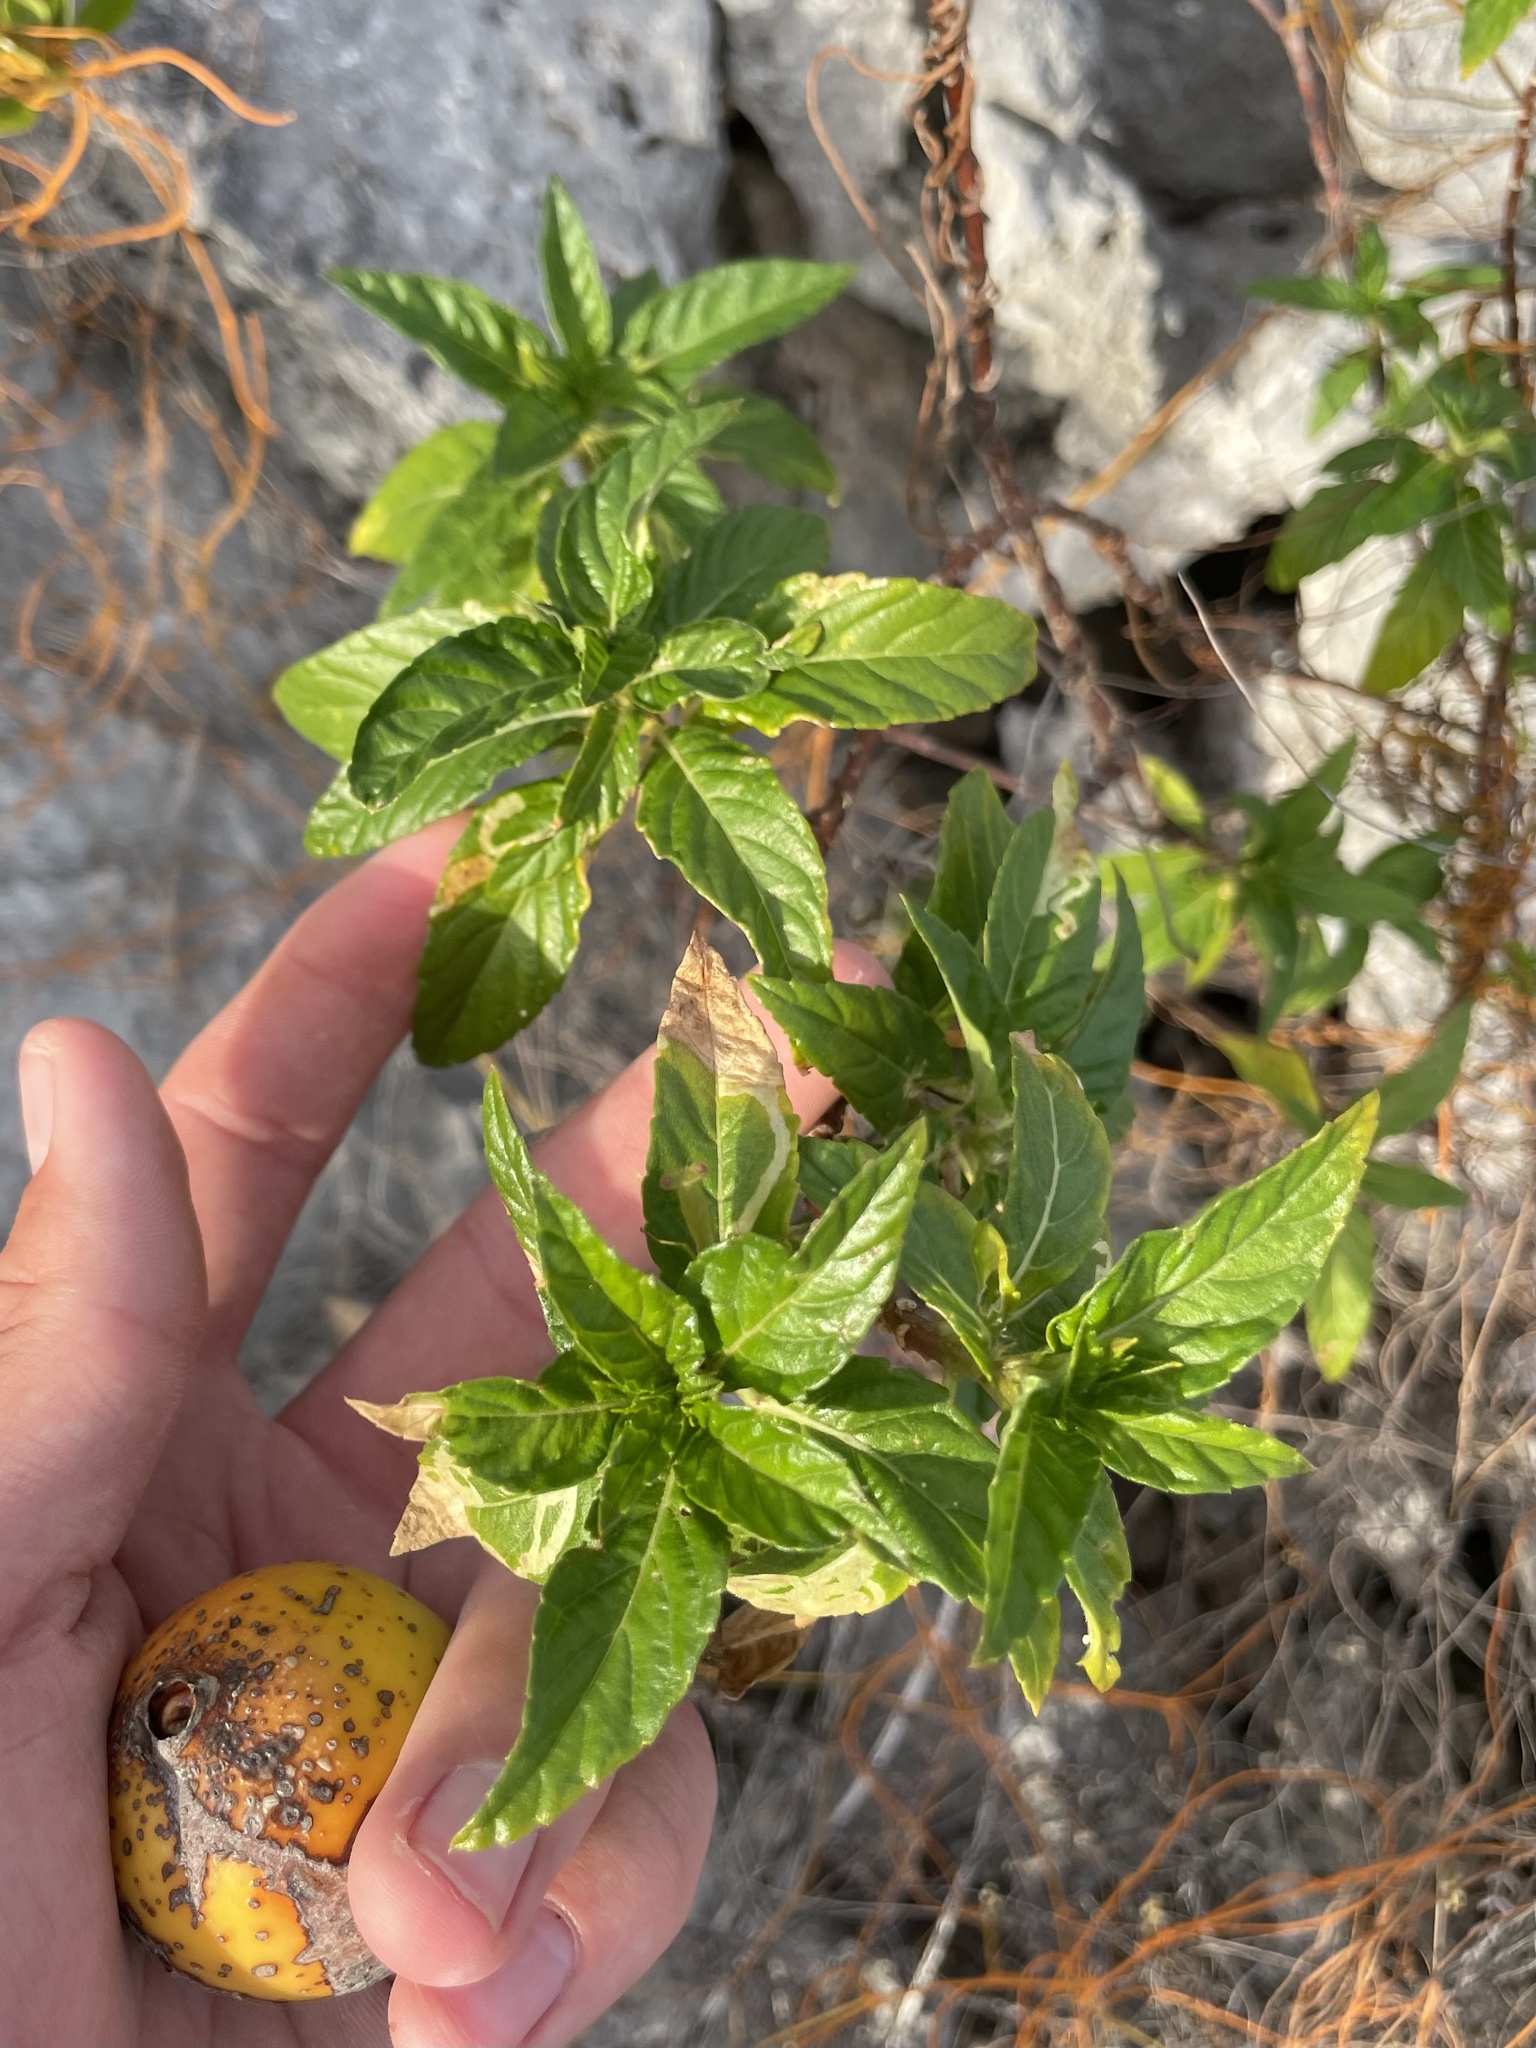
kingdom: Plantae
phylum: Tracheophyta
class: Magnoliopsida
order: Malpighiales
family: Turneraceae
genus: Turnera
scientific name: Turnera ulmifolia
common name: Ramgoat dashalong
